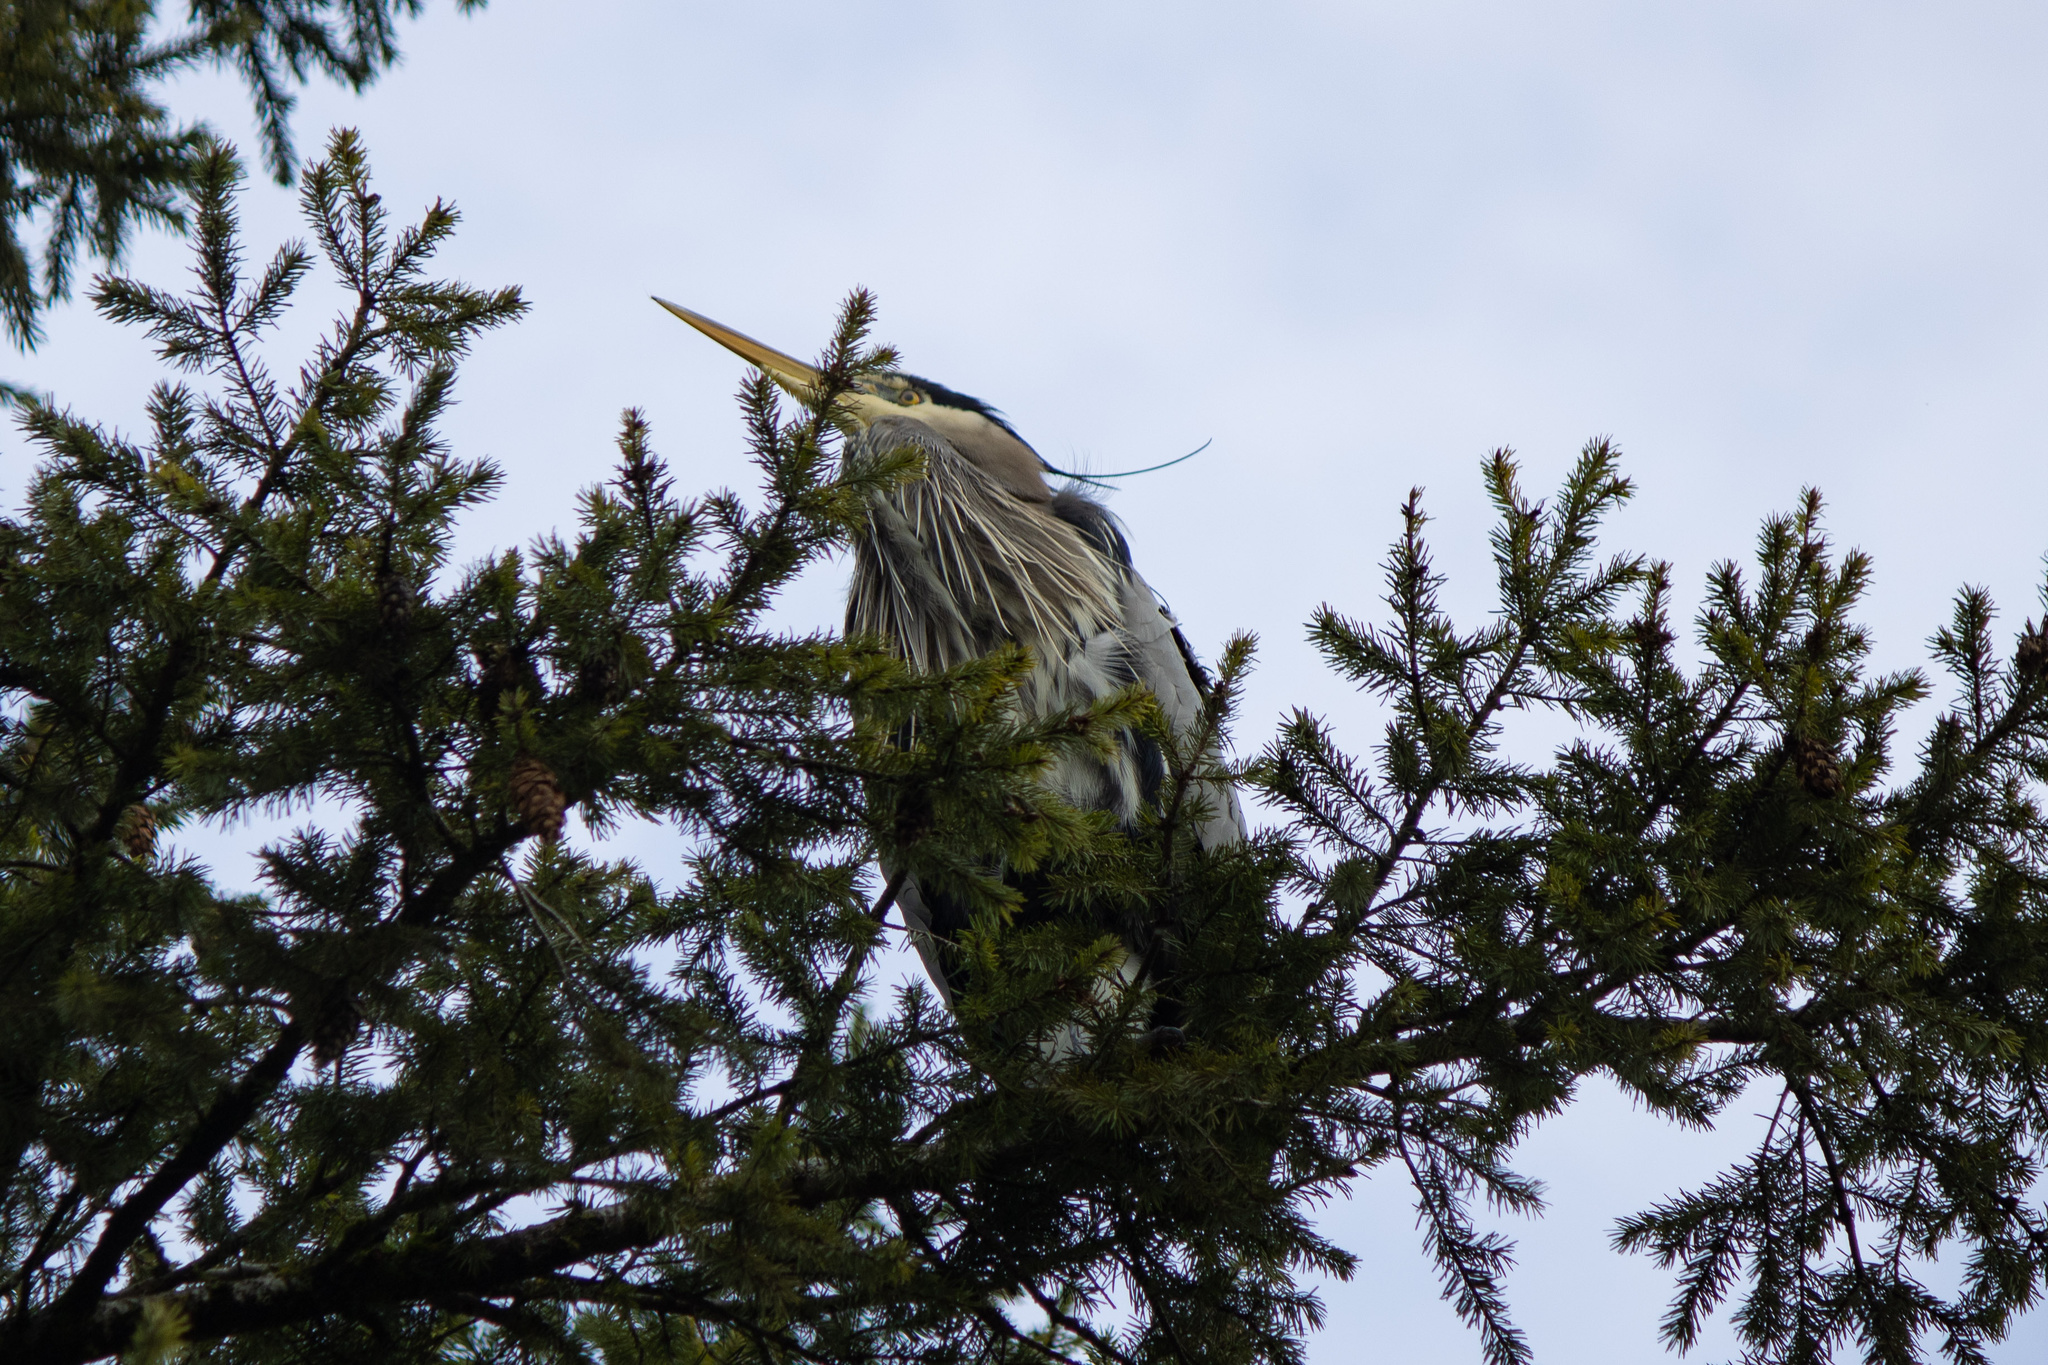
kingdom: Animalia
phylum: Chordata
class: Aves
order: Pelecaniformes
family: Ardeidae
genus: Ardea
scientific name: Ardea herodias
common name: Great blue heron
